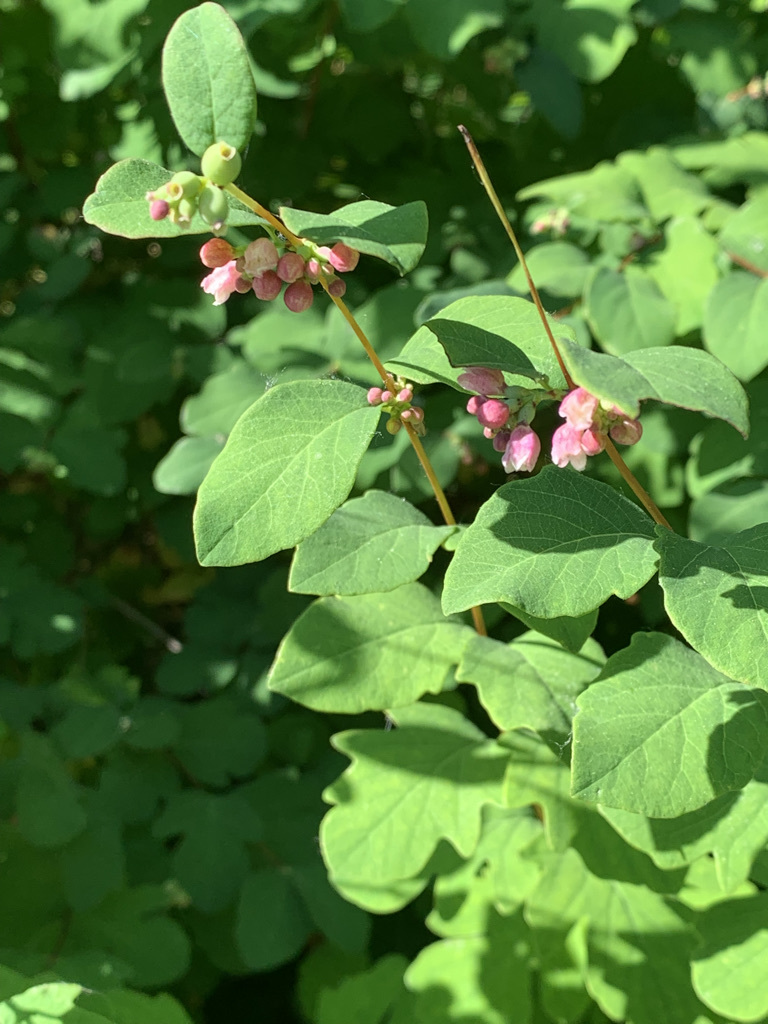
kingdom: Plantae
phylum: Tracheophyta
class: Magnoliopsida
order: Dipsacales
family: Caprifoliaceae
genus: Symphoricarpos
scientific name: Symphoricarpos albus
